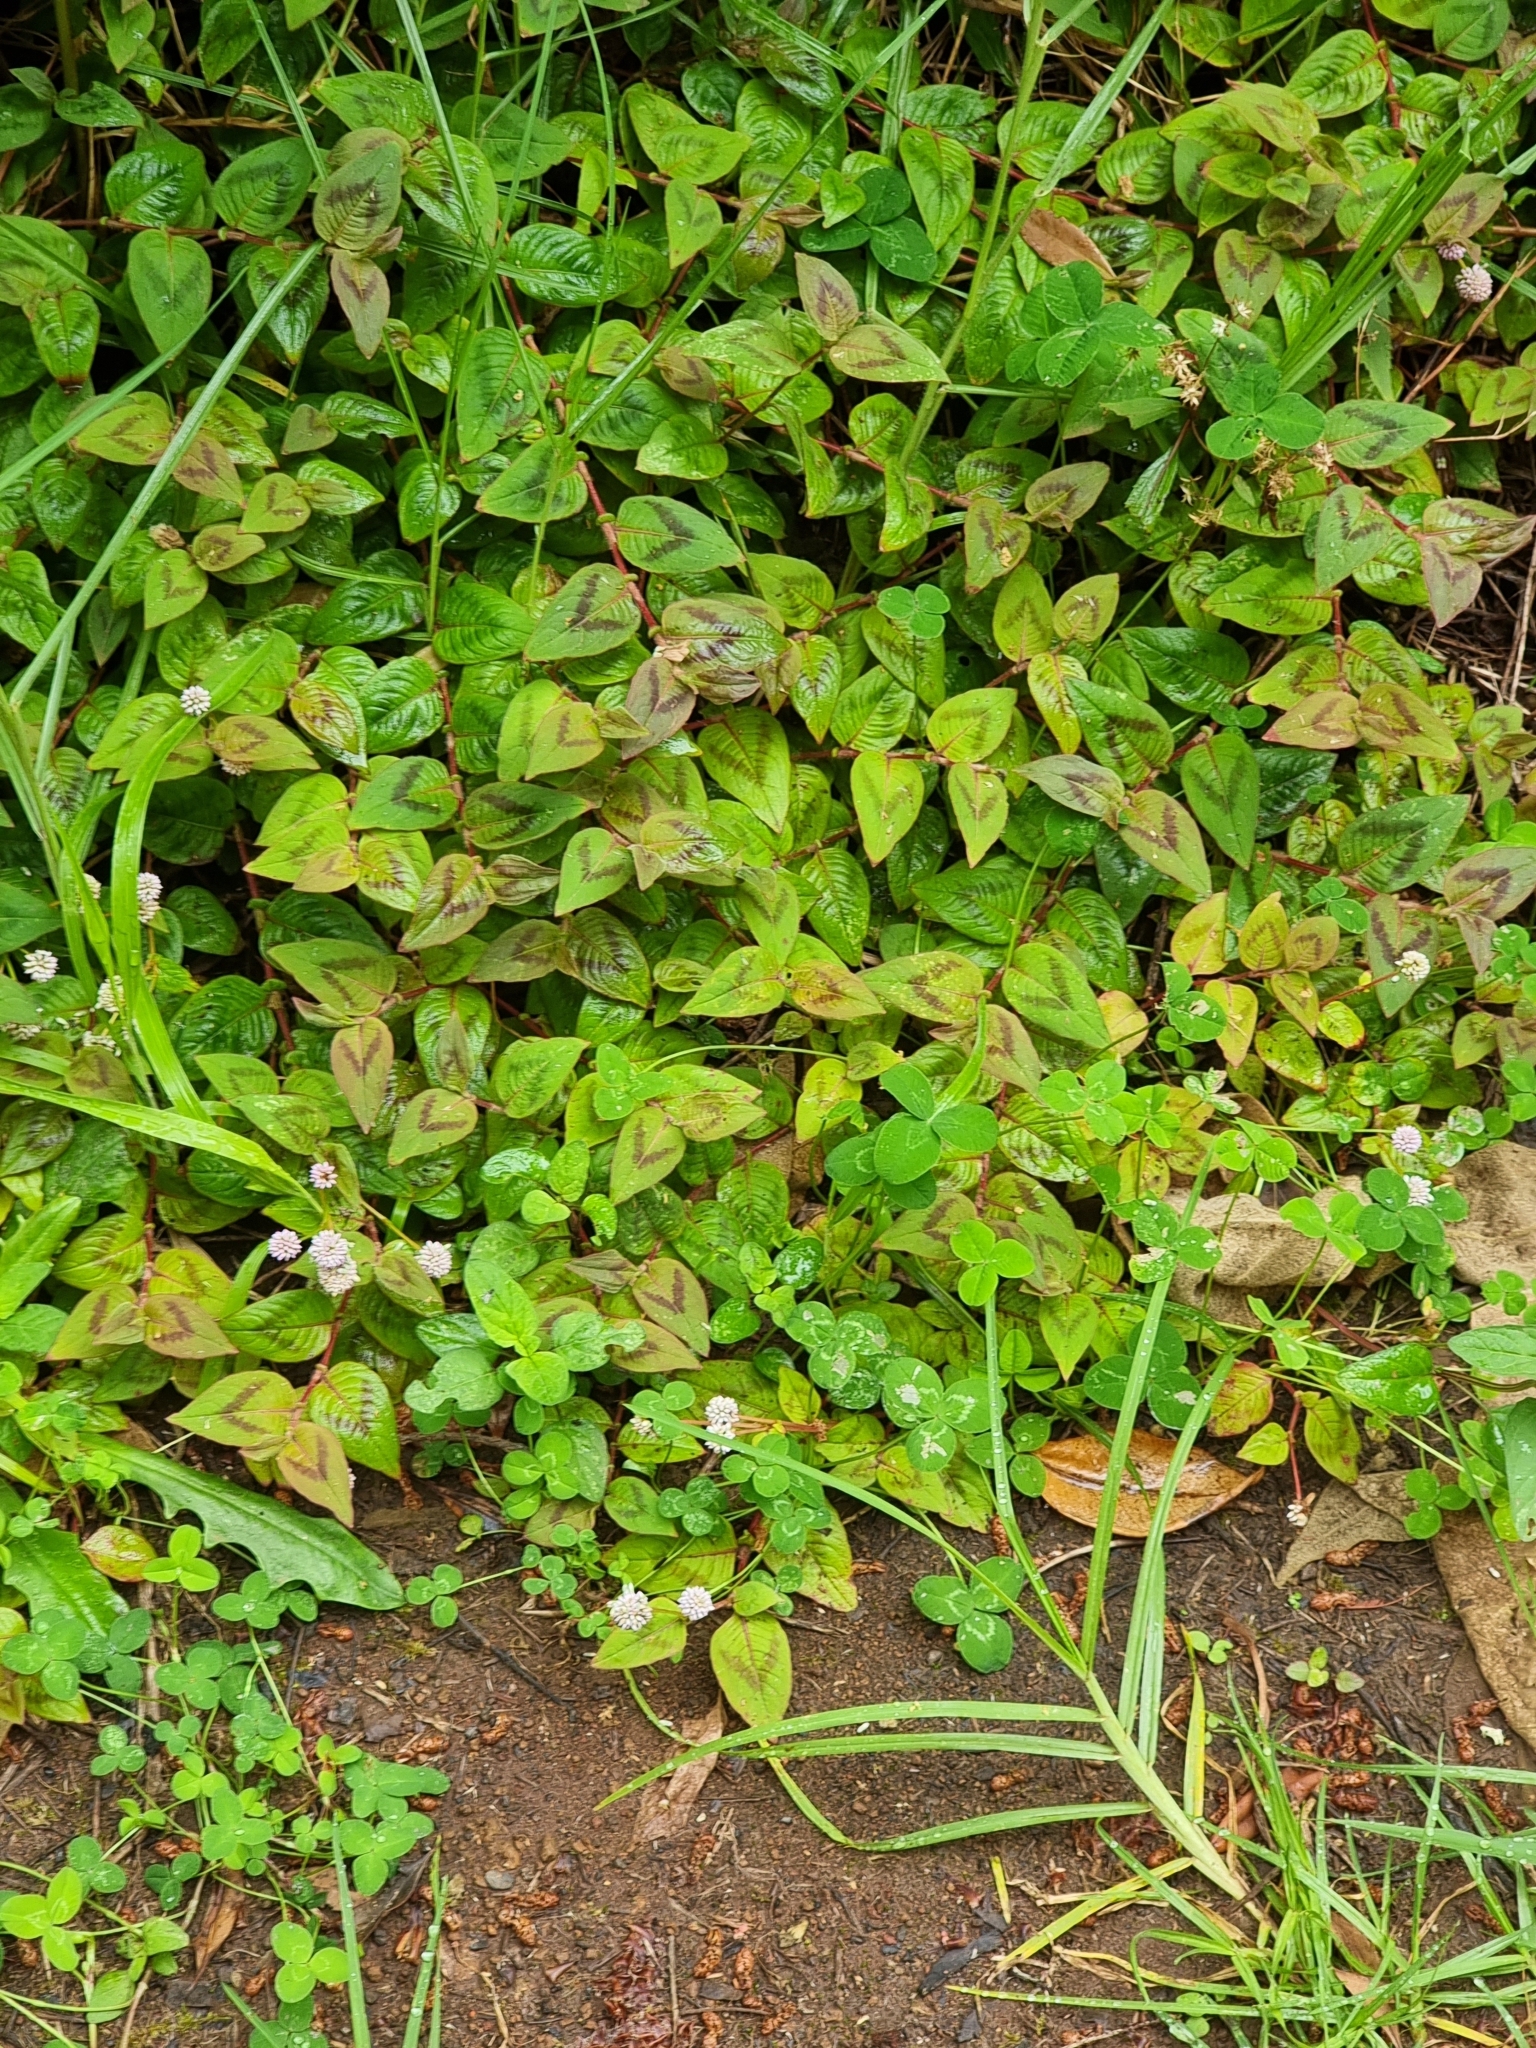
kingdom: Plantae
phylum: Tracheophyta
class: Magnoliopsida
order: Caryophyllales
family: Polygonaceae
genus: Persicaria
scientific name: Persicaria capitata
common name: Pinkhead smartweed
